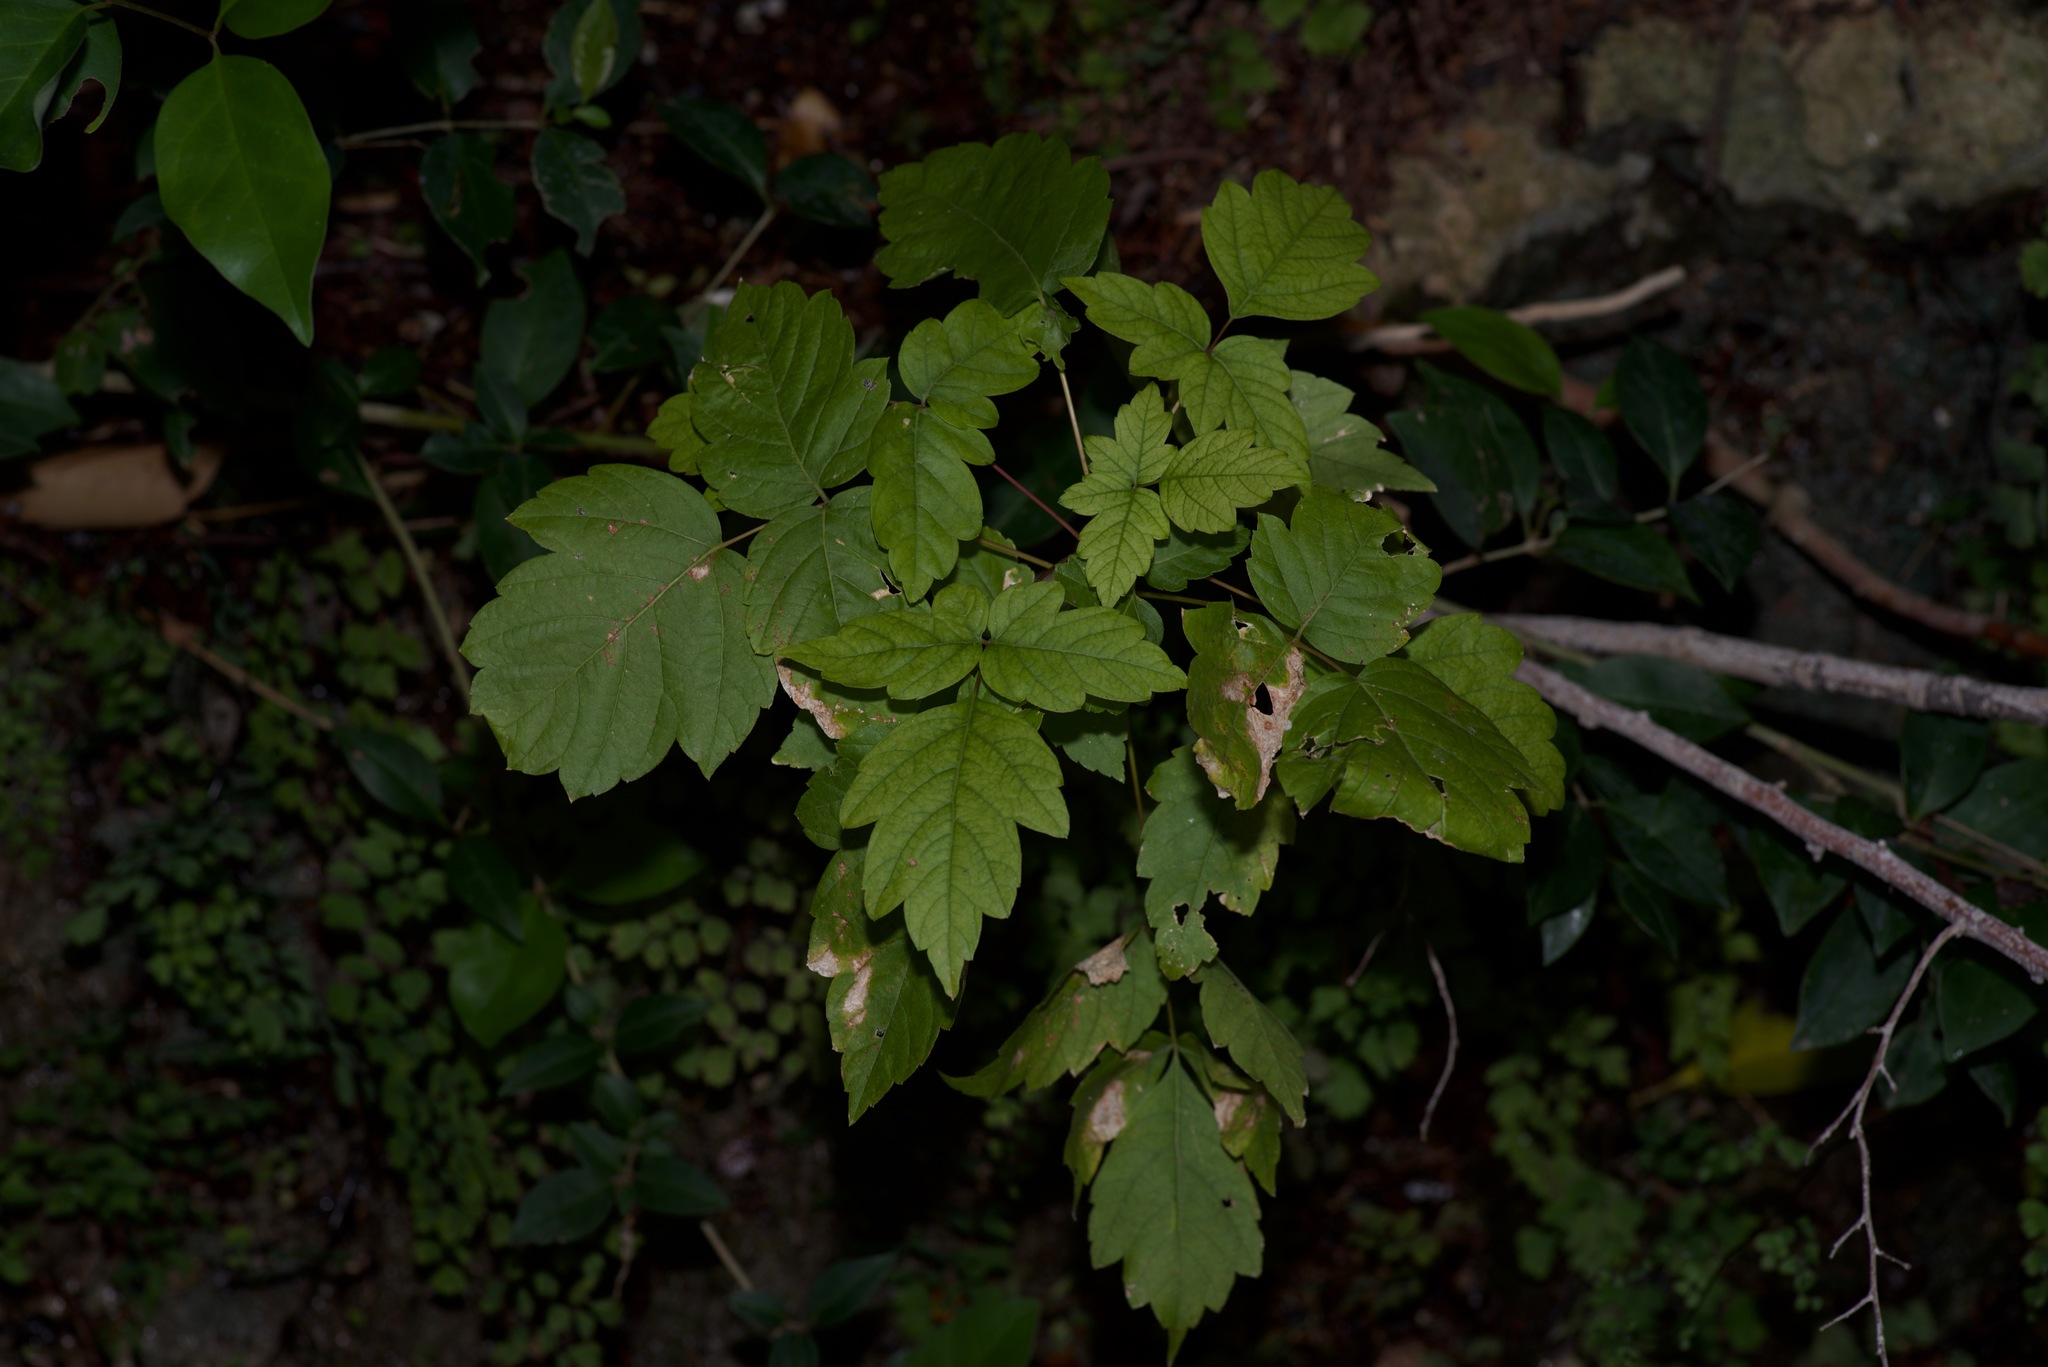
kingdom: Plantae
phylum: Tracheophyta
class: Magnoliopsida
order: Sapindales
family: Sapindaceae
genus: Acer
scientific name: Acer negundo
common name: Ashleaf maple
